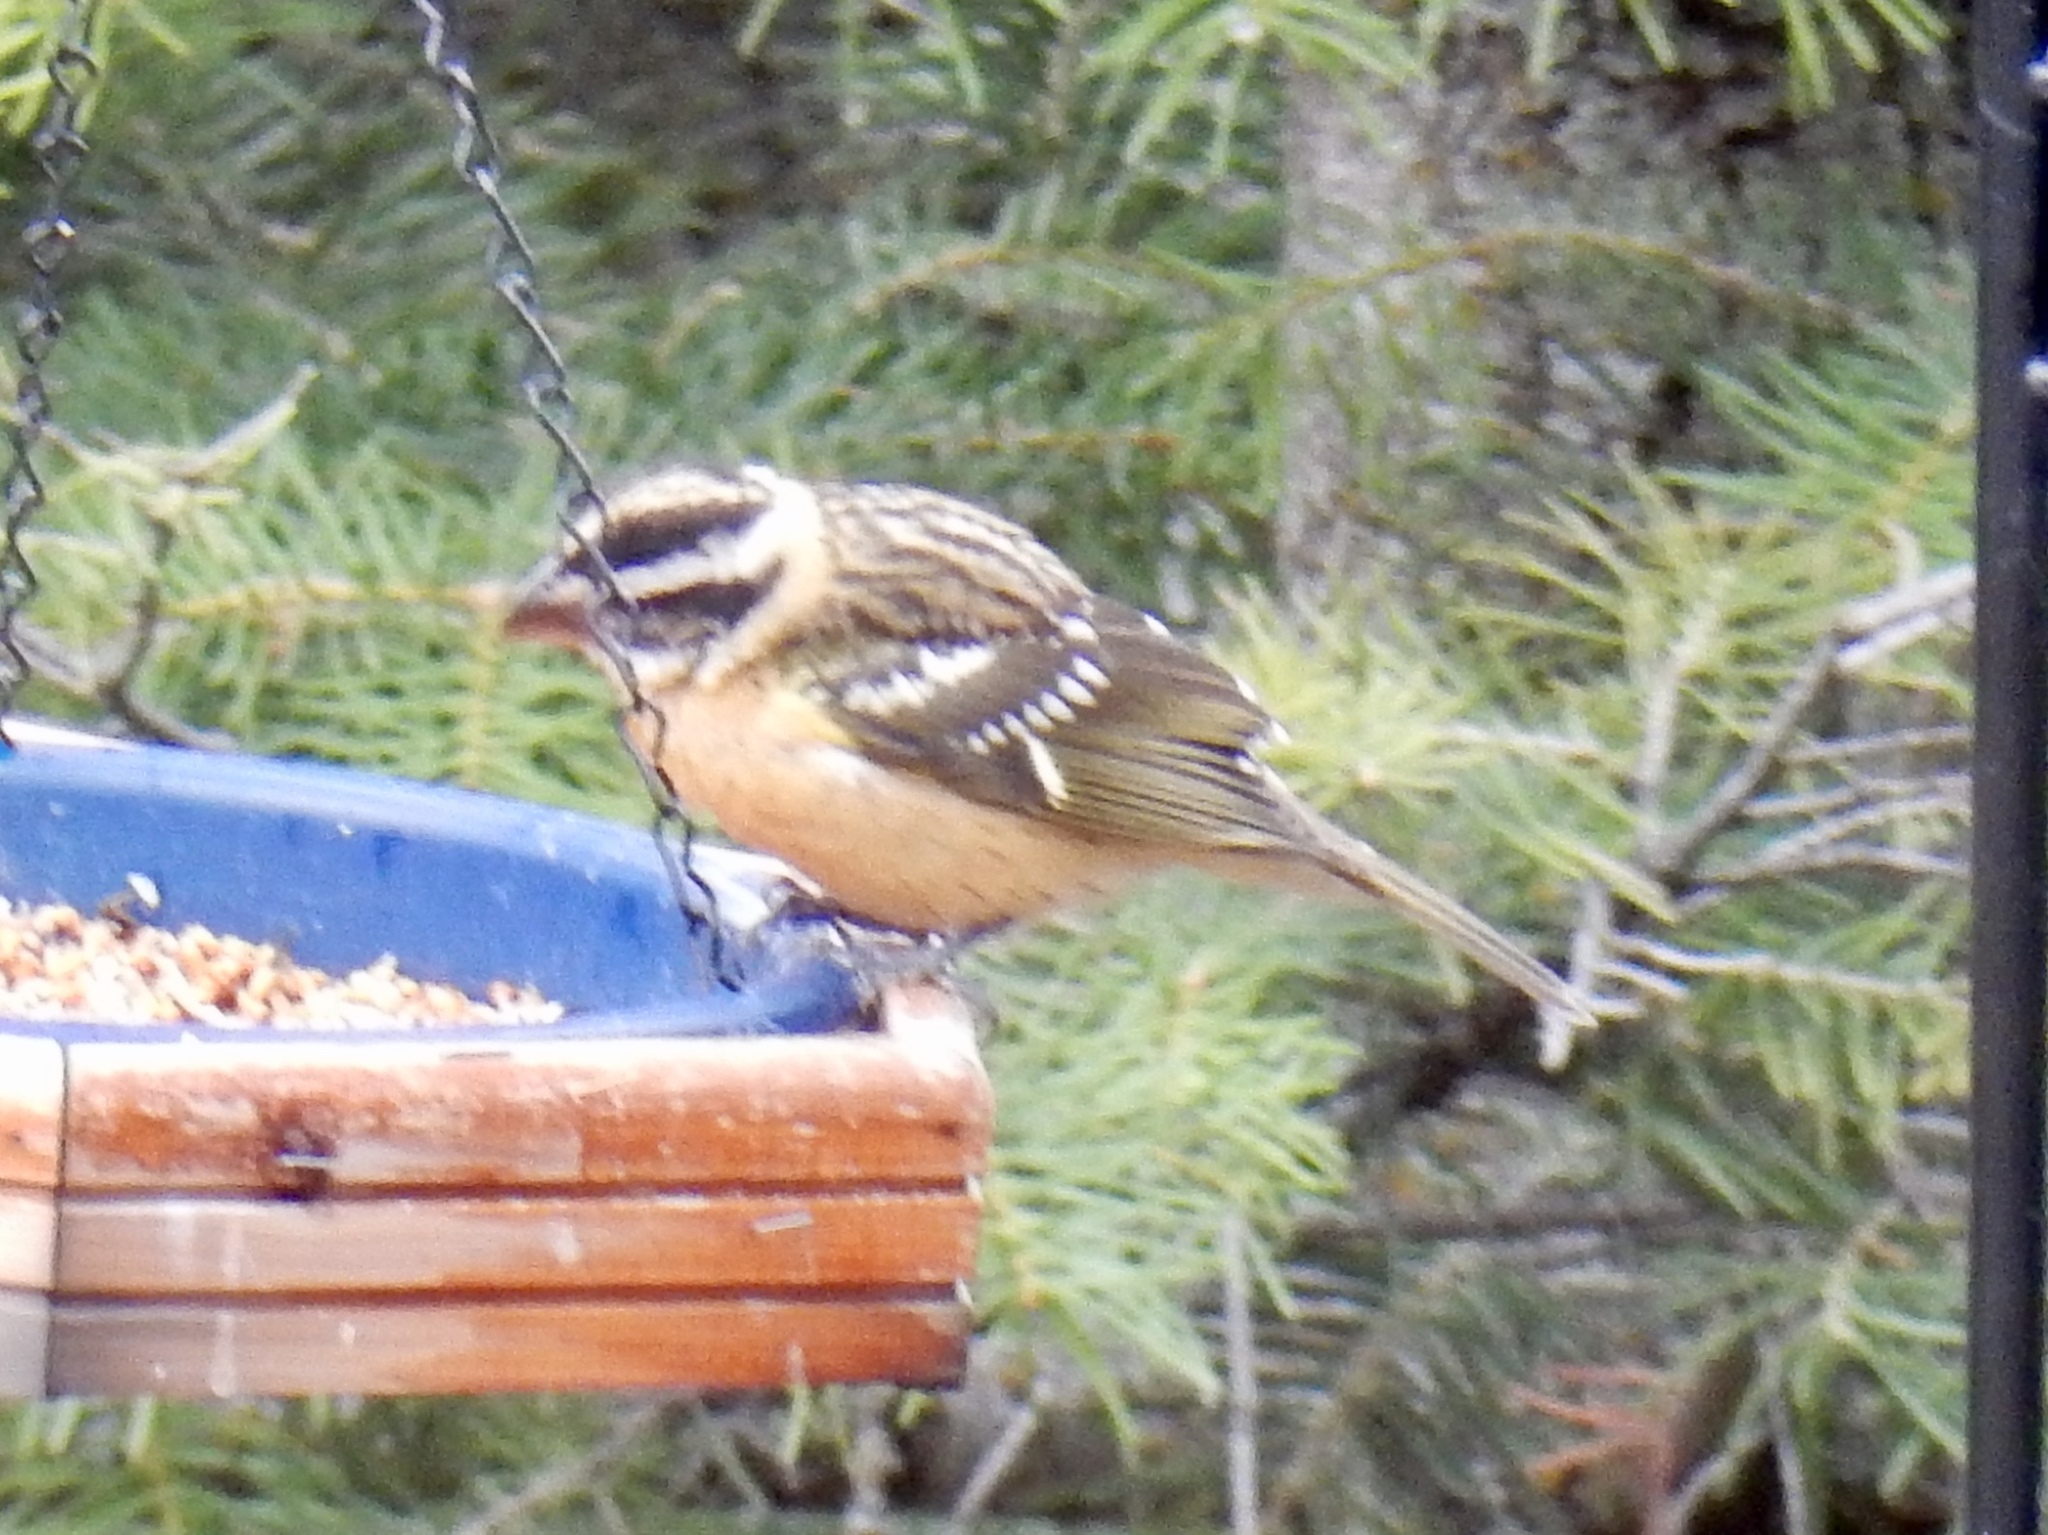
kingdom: Animalia
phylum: Chordata
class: Aves
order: Passeriformes
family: Cardinalidae
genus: Pheucticus
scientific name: Pheucticus melanocephalus
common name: Black-headed grosbeak
